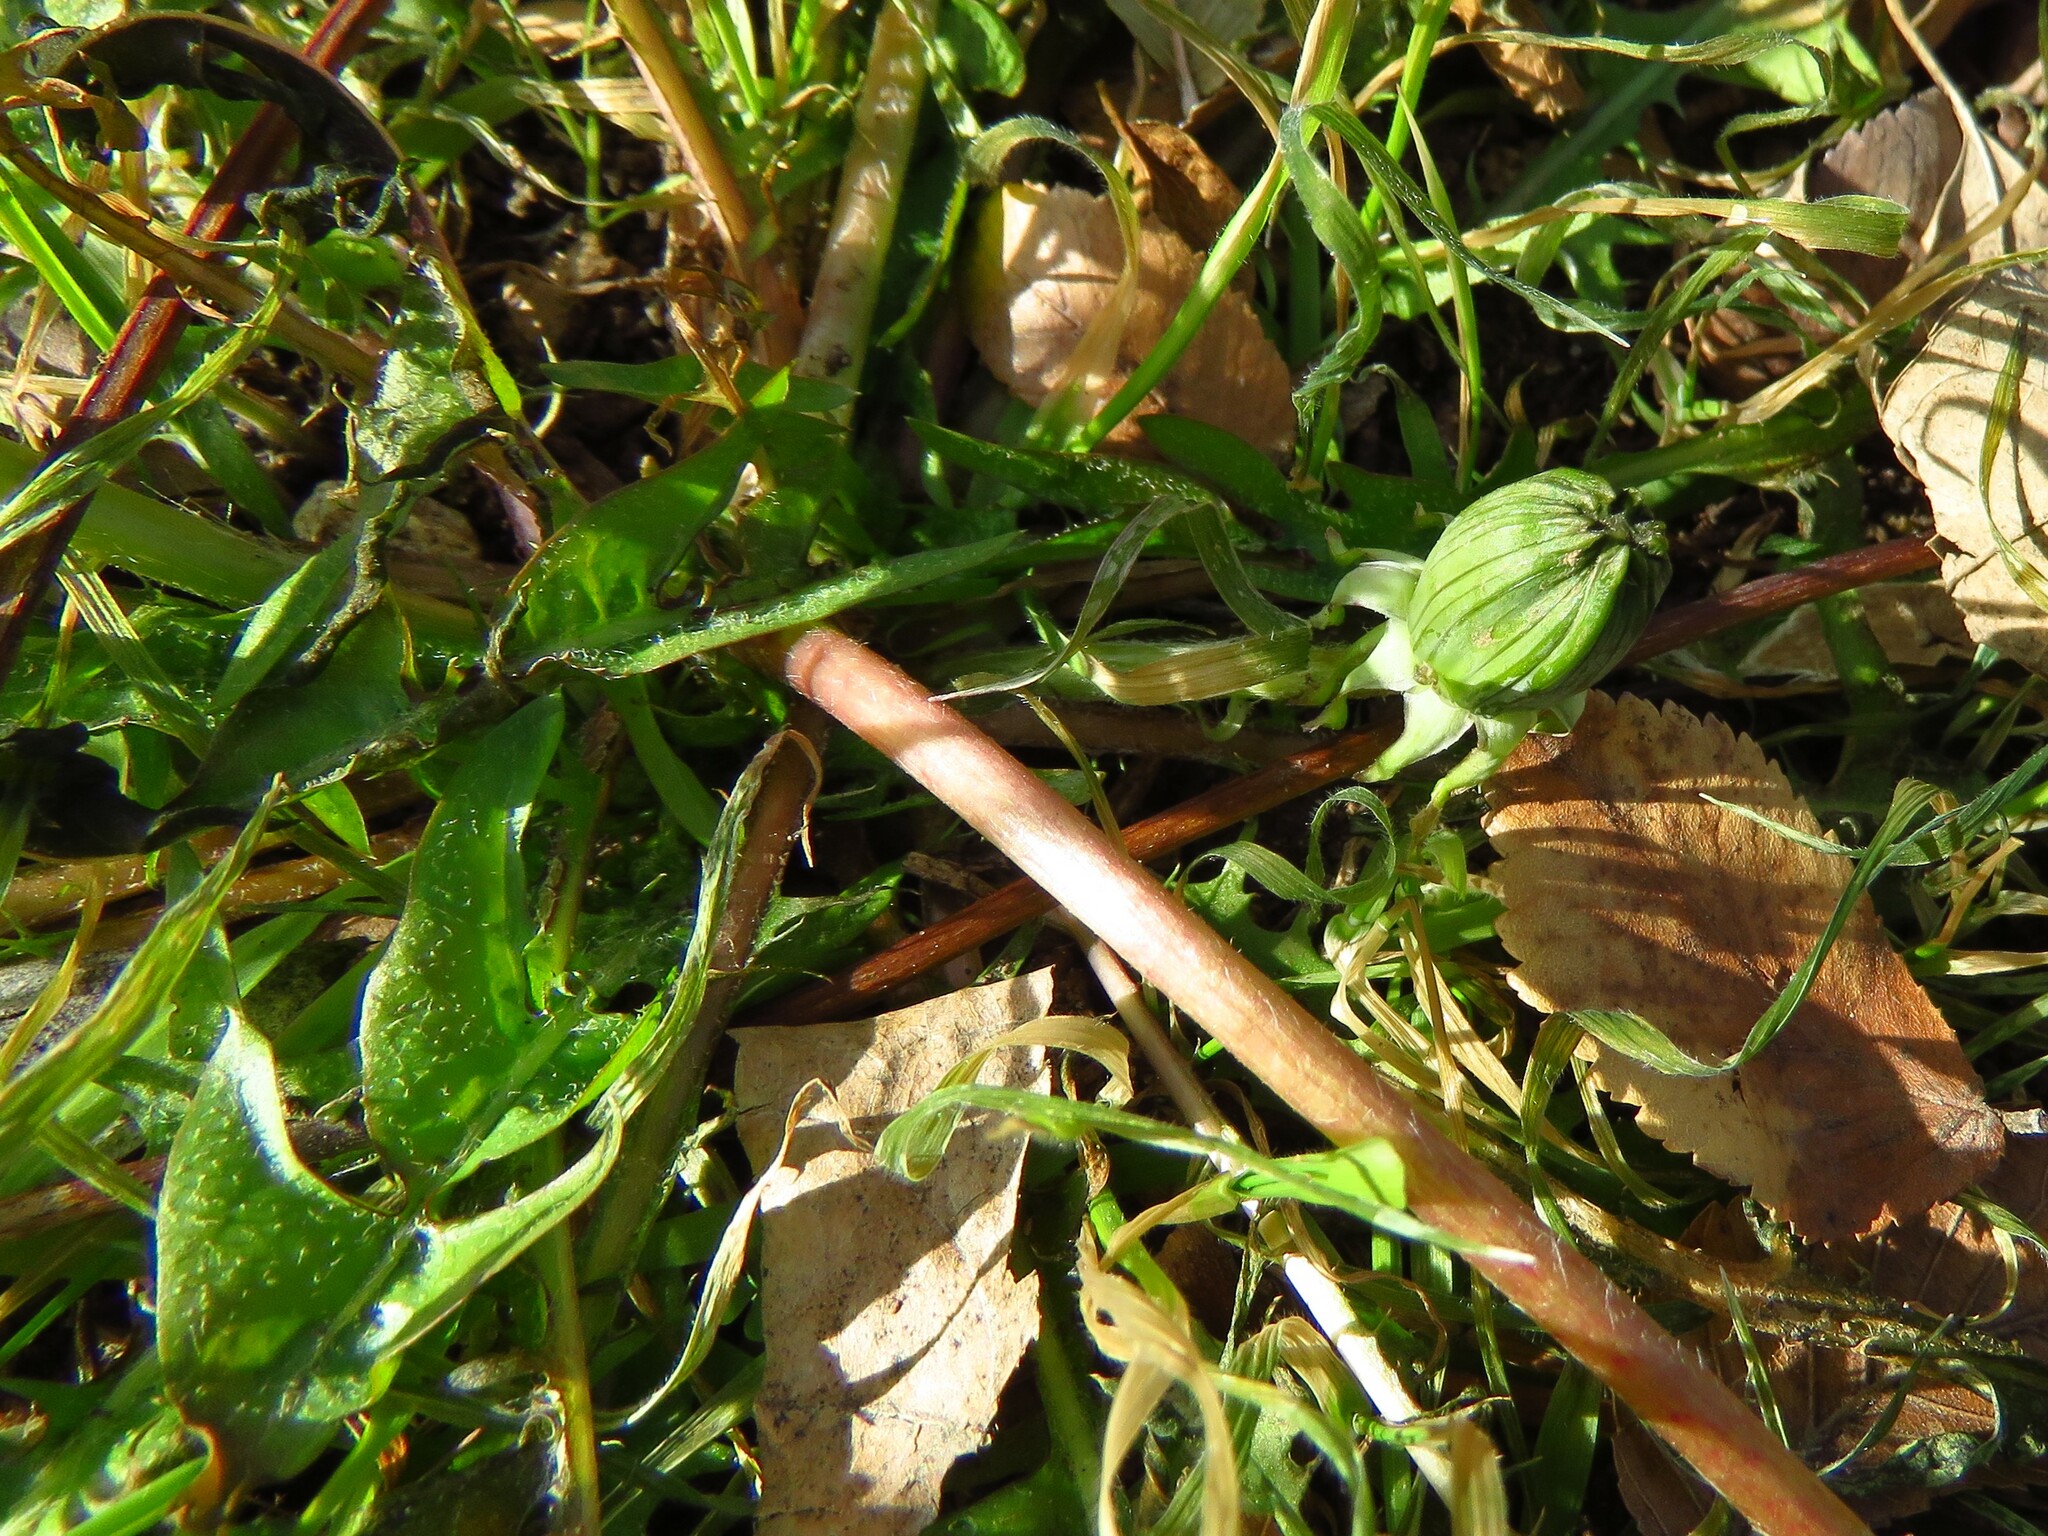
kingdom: Plantae
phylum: Tracheophyta
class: Magnoliopsida
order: Asterales
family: Asteraceae
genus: Taraxacum
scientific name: Taraxacum officinale
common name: Common dandelion
